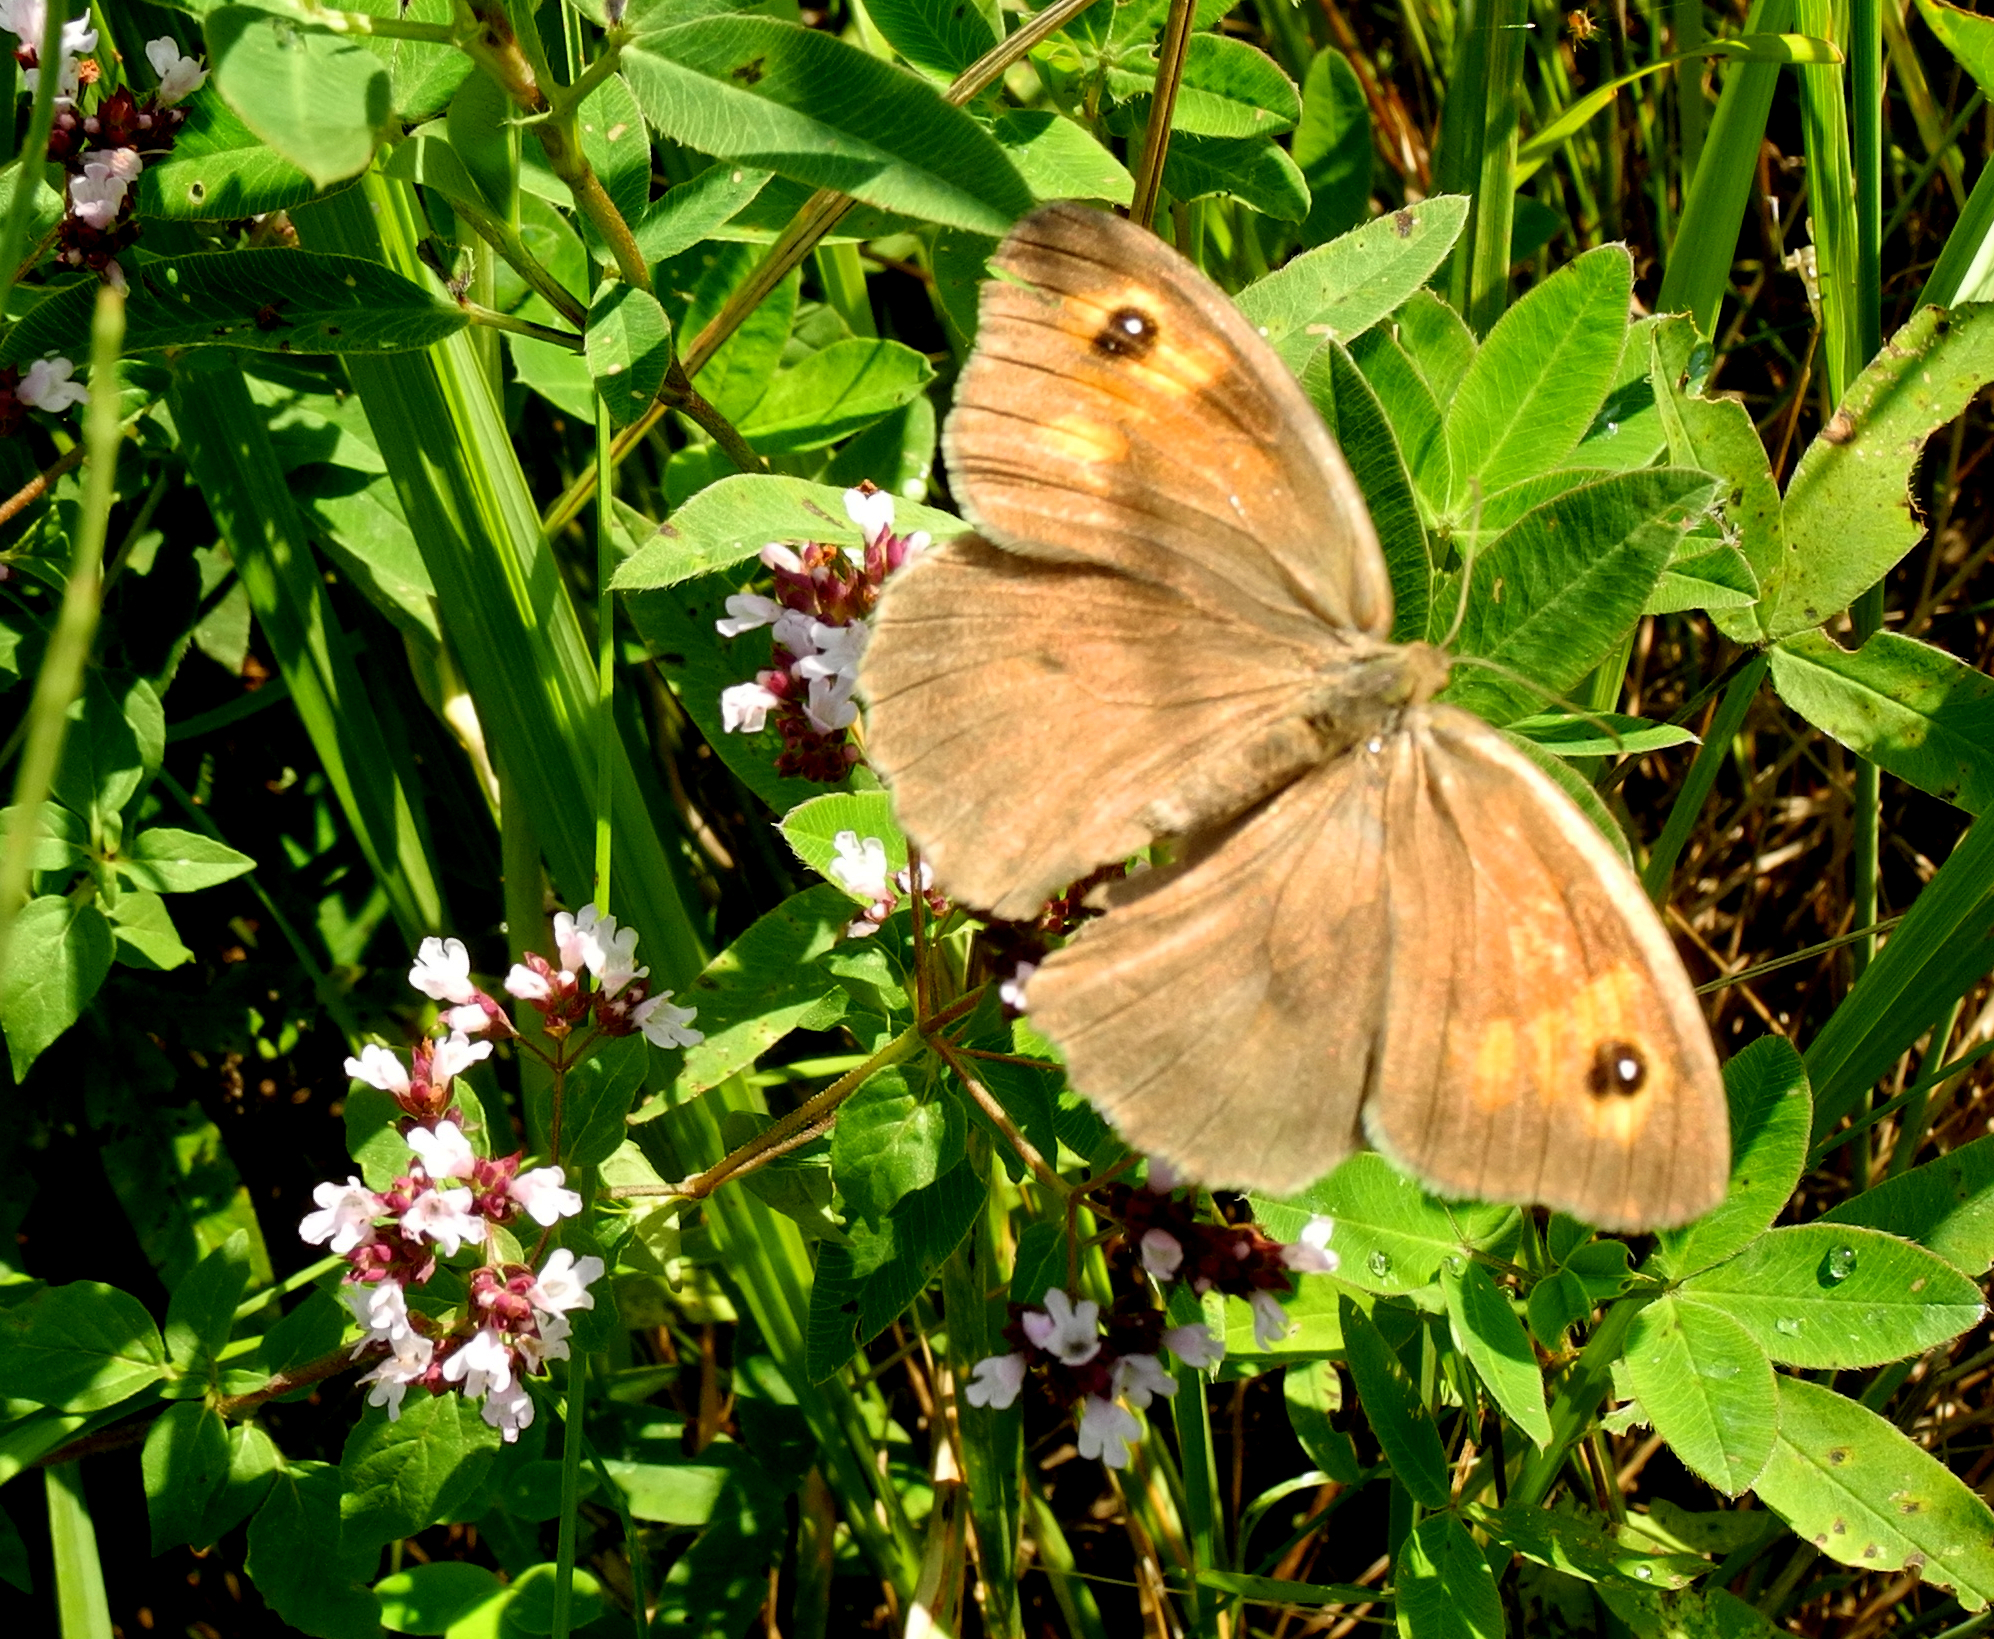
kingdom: Animalia
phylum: Arthropoda
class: Insecta
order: Lepidoptera
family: Nymphalidae
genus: Maniola
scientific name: Maniola jurtina
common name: Meadow brown
